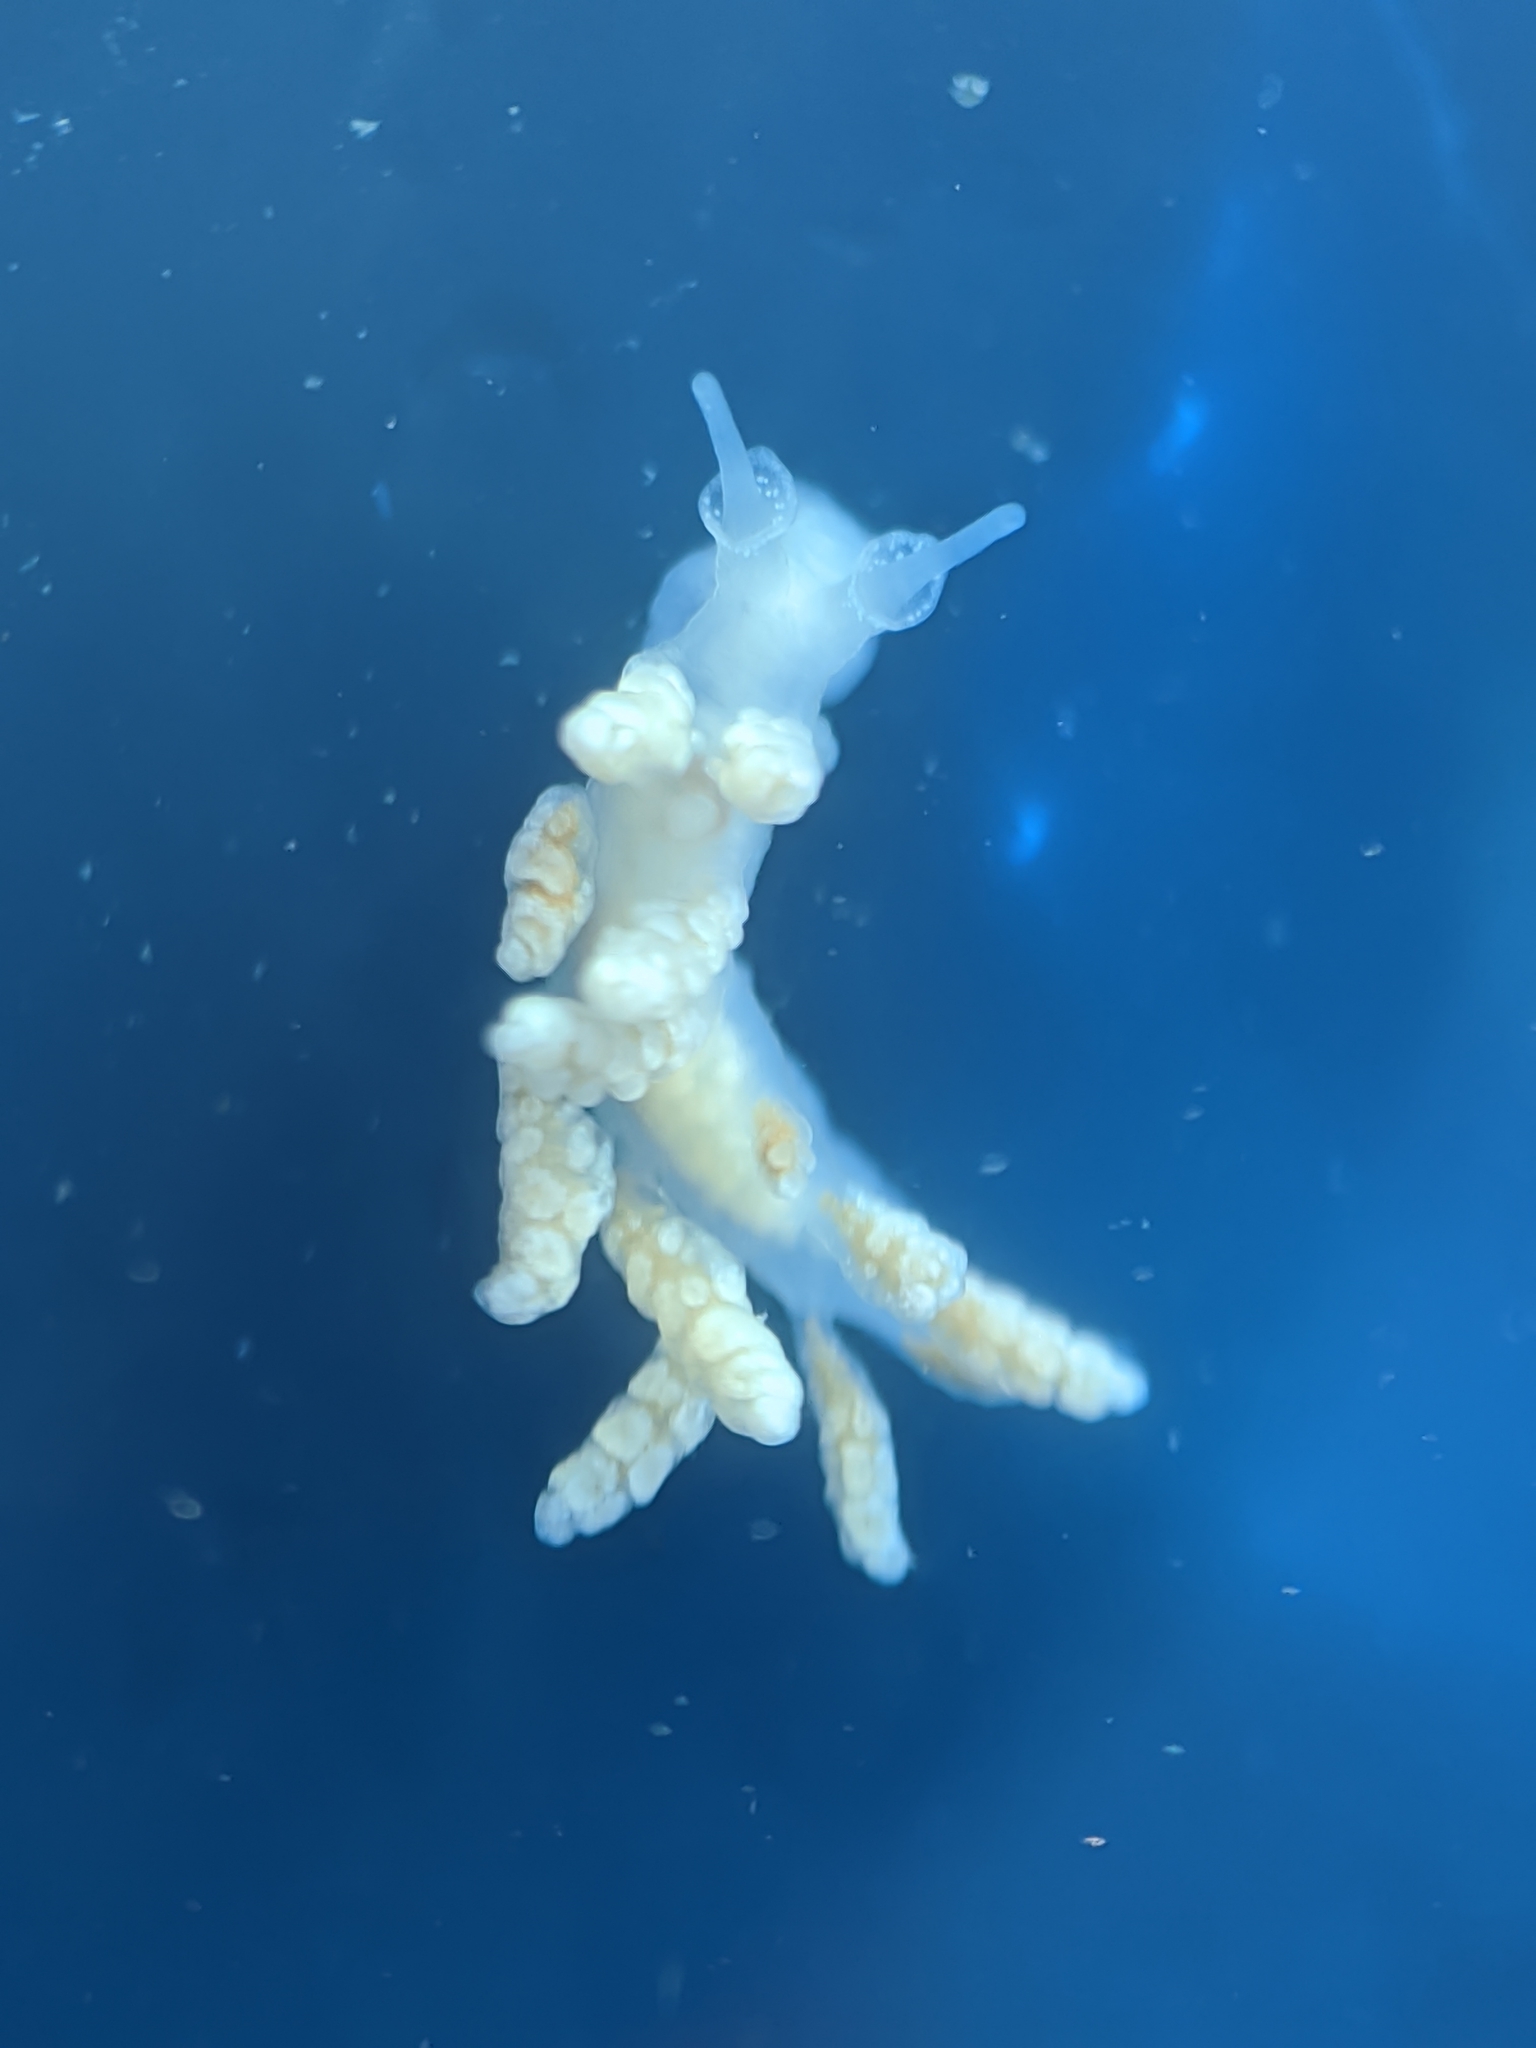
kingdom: Animalia
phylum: Mollusca
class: Gastropoda
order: Nudibranchia
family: Dotidae
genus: Doto
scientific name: Doto amyra
